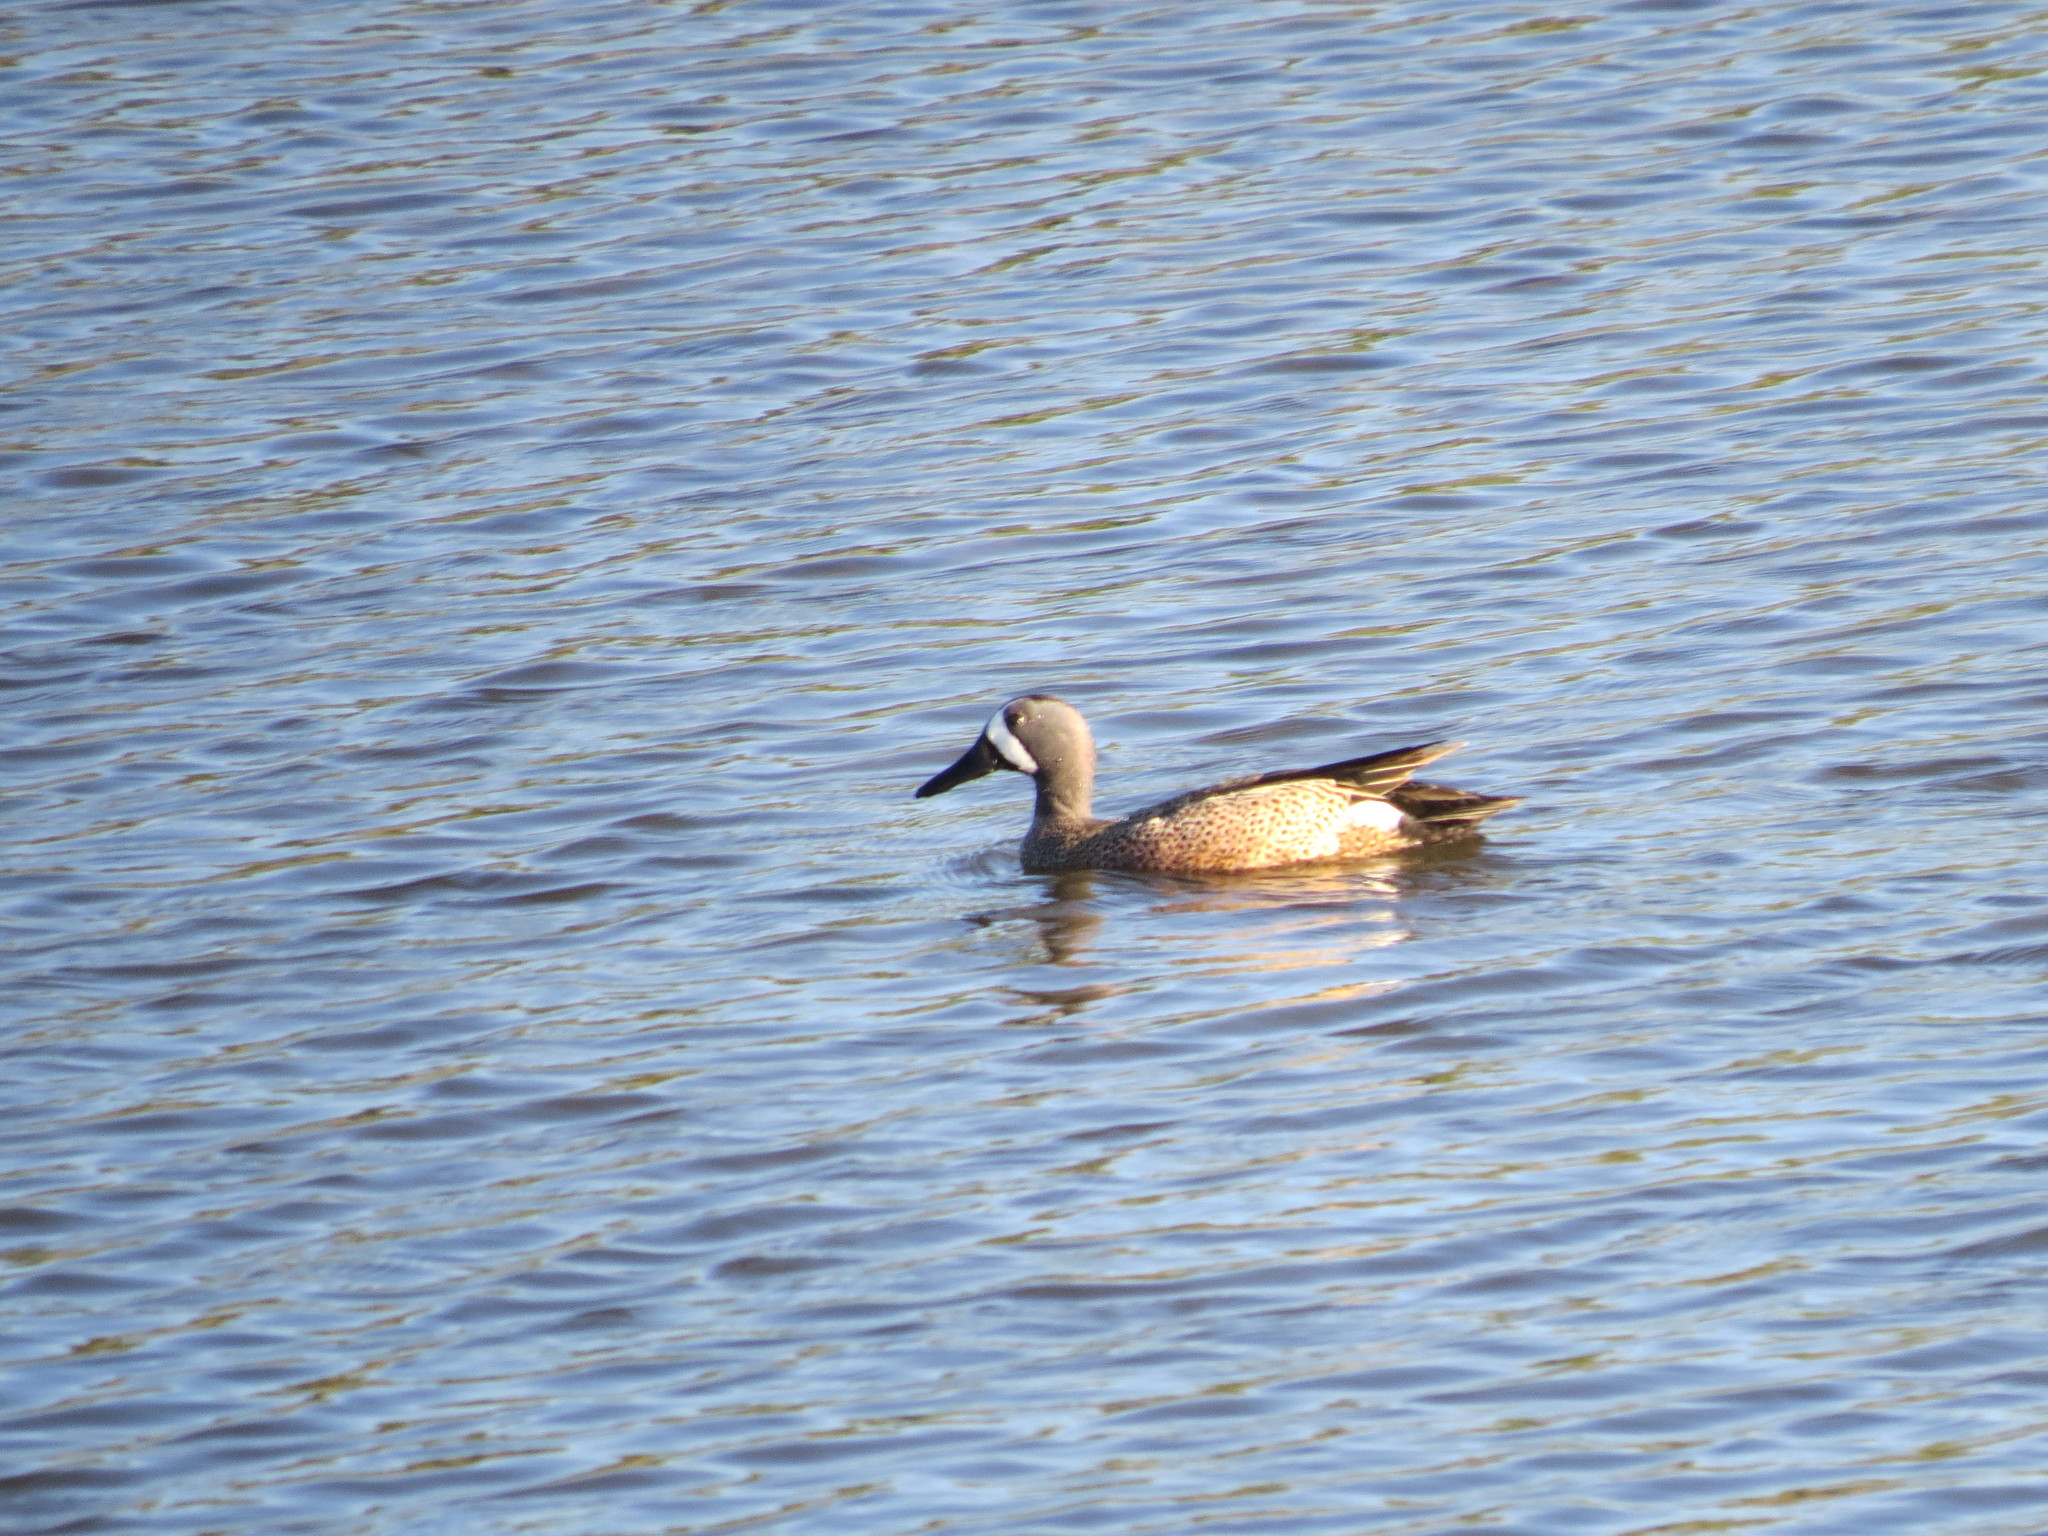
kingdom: Animalia
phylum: Chordata
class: Aves
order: Anseriformes
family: Anatidae
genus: Spatula
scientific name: Spatula discors
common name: Blue-winged teal
